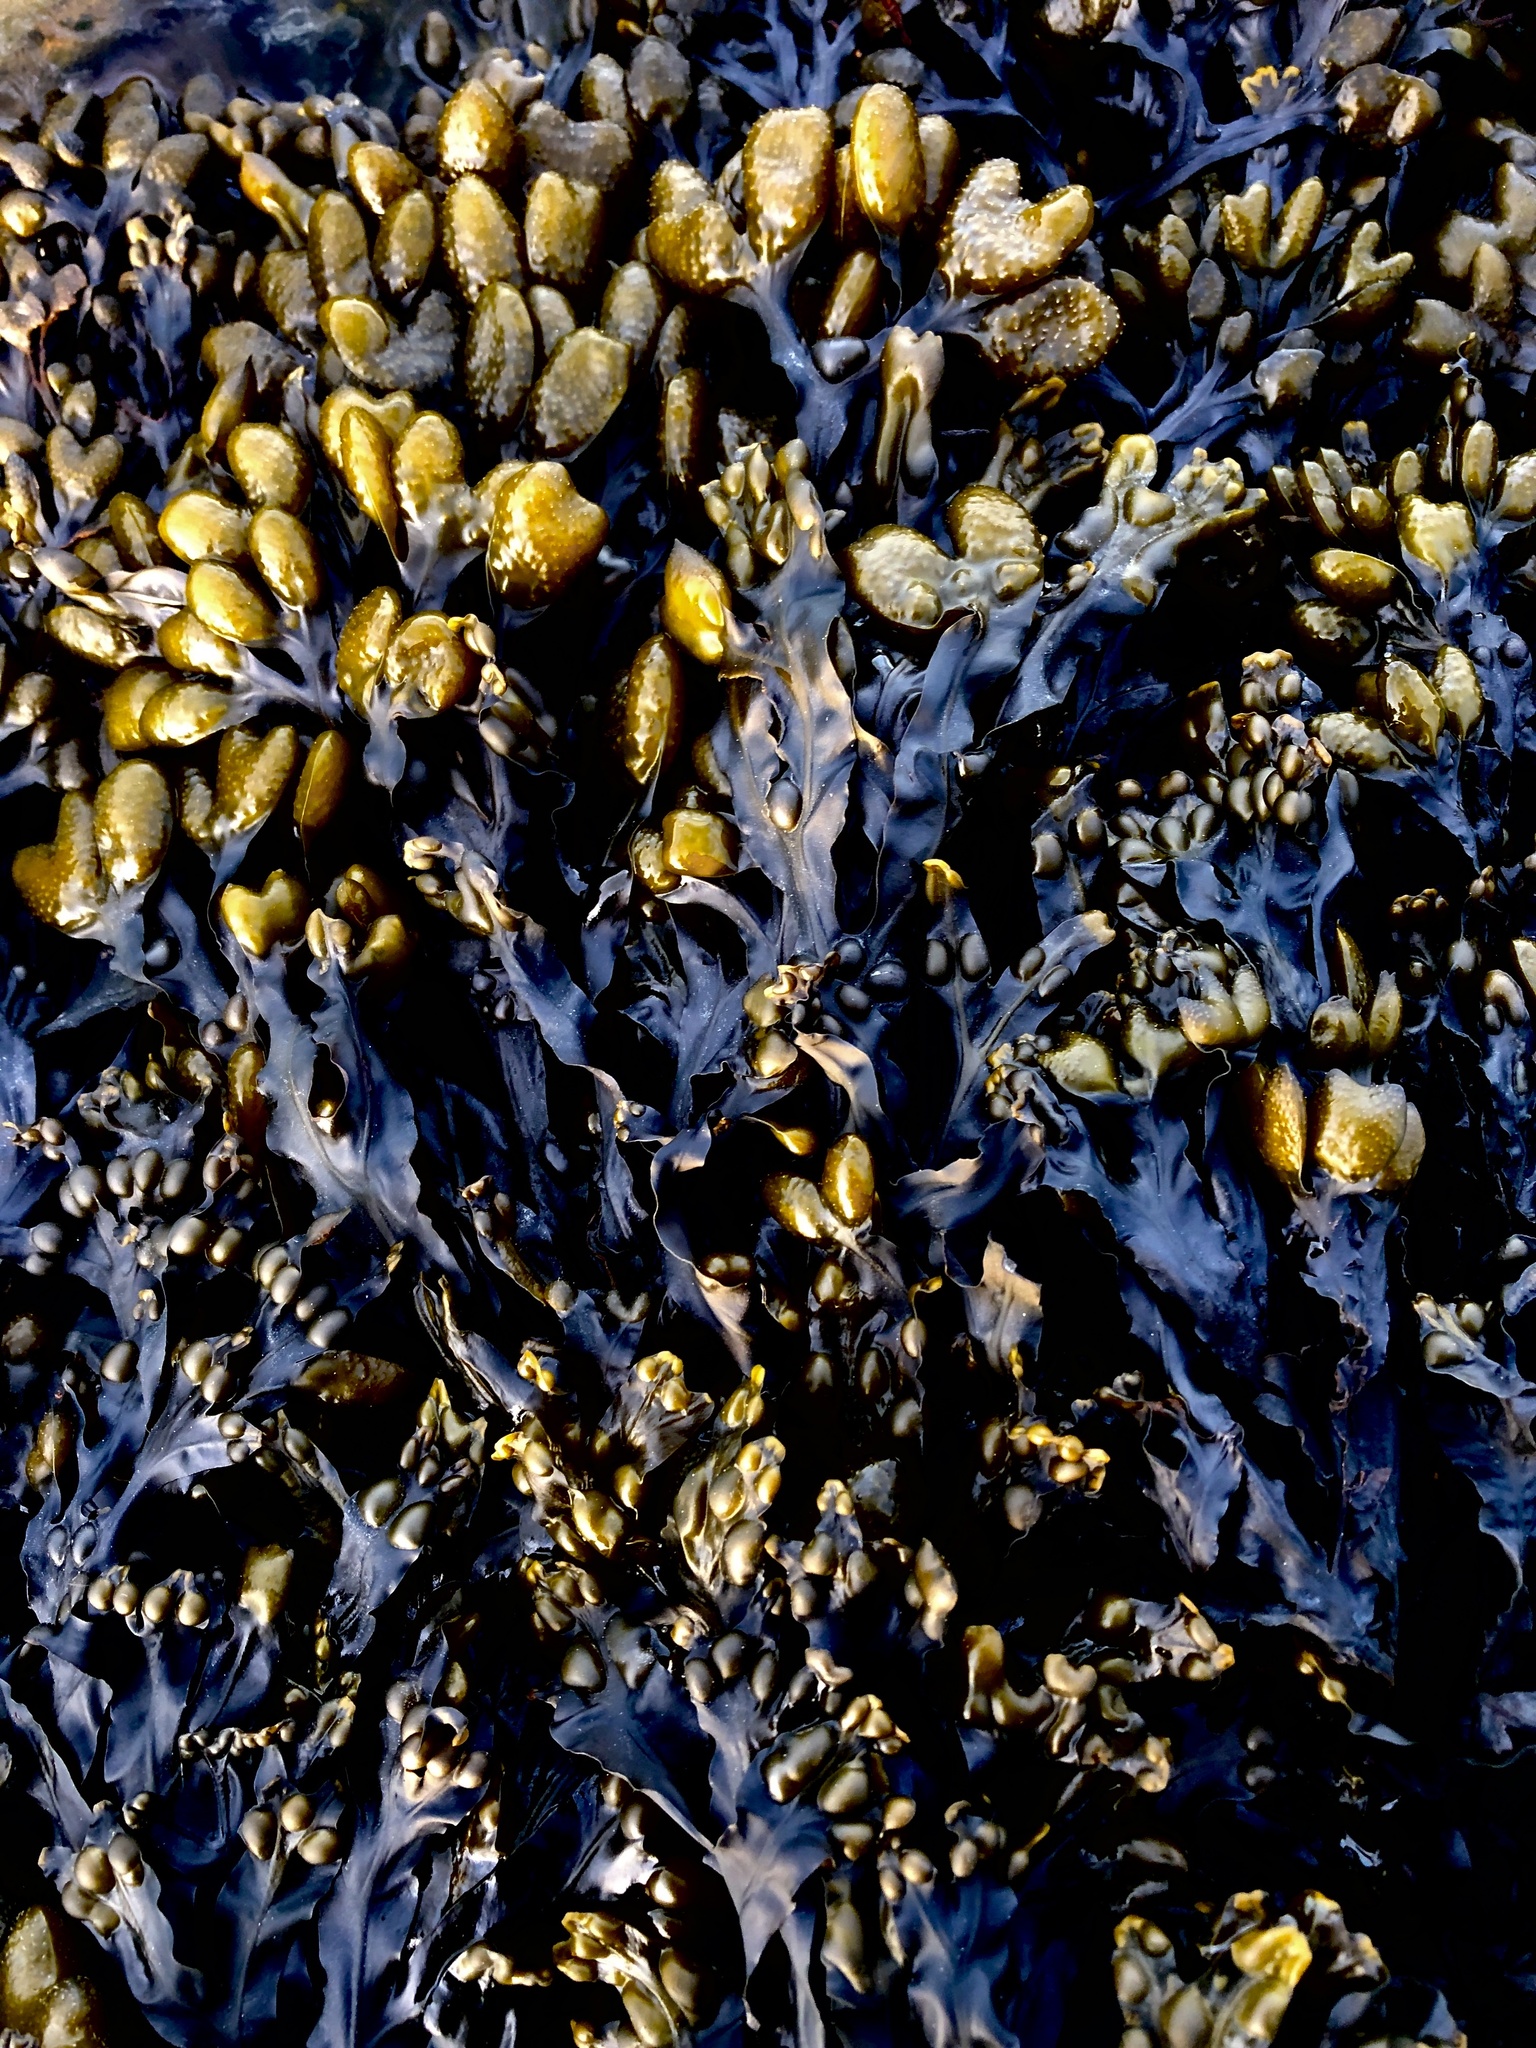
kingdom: Chromista
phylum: Ochrophyta
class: Phaeophyceae
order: Fucales
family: Fucaceae
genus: Fucus
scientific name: Fucus vesiculosus
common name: Bladder wrack
